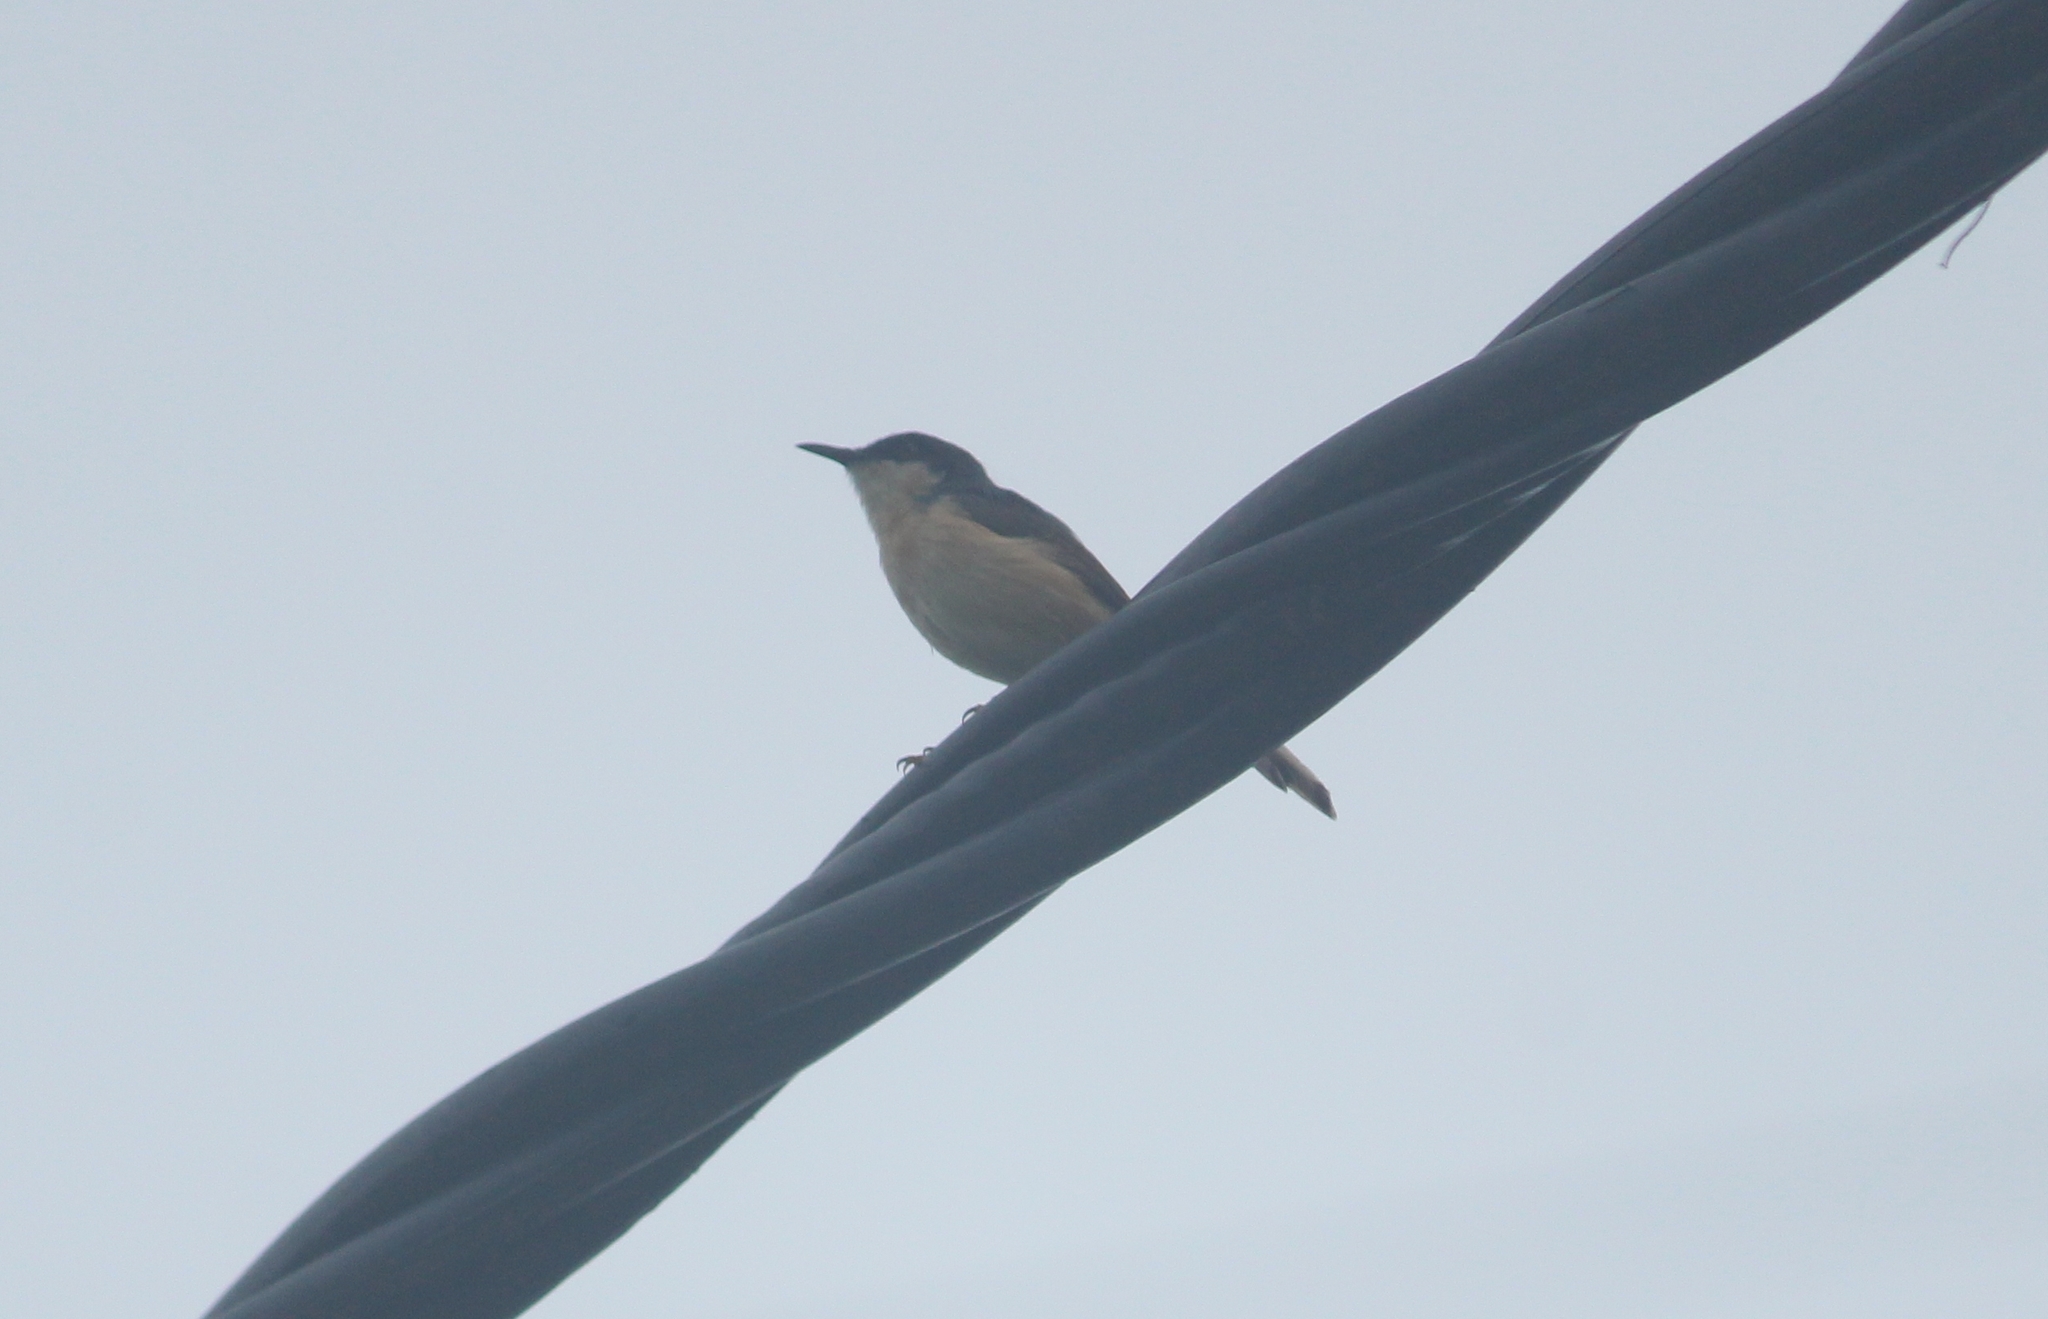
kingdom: Animalia
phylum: Chordata
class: Aves
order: Passeriformes
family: Cisticolidae
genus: Prinia
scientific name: Prinia socialis
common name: Ashy prinia
